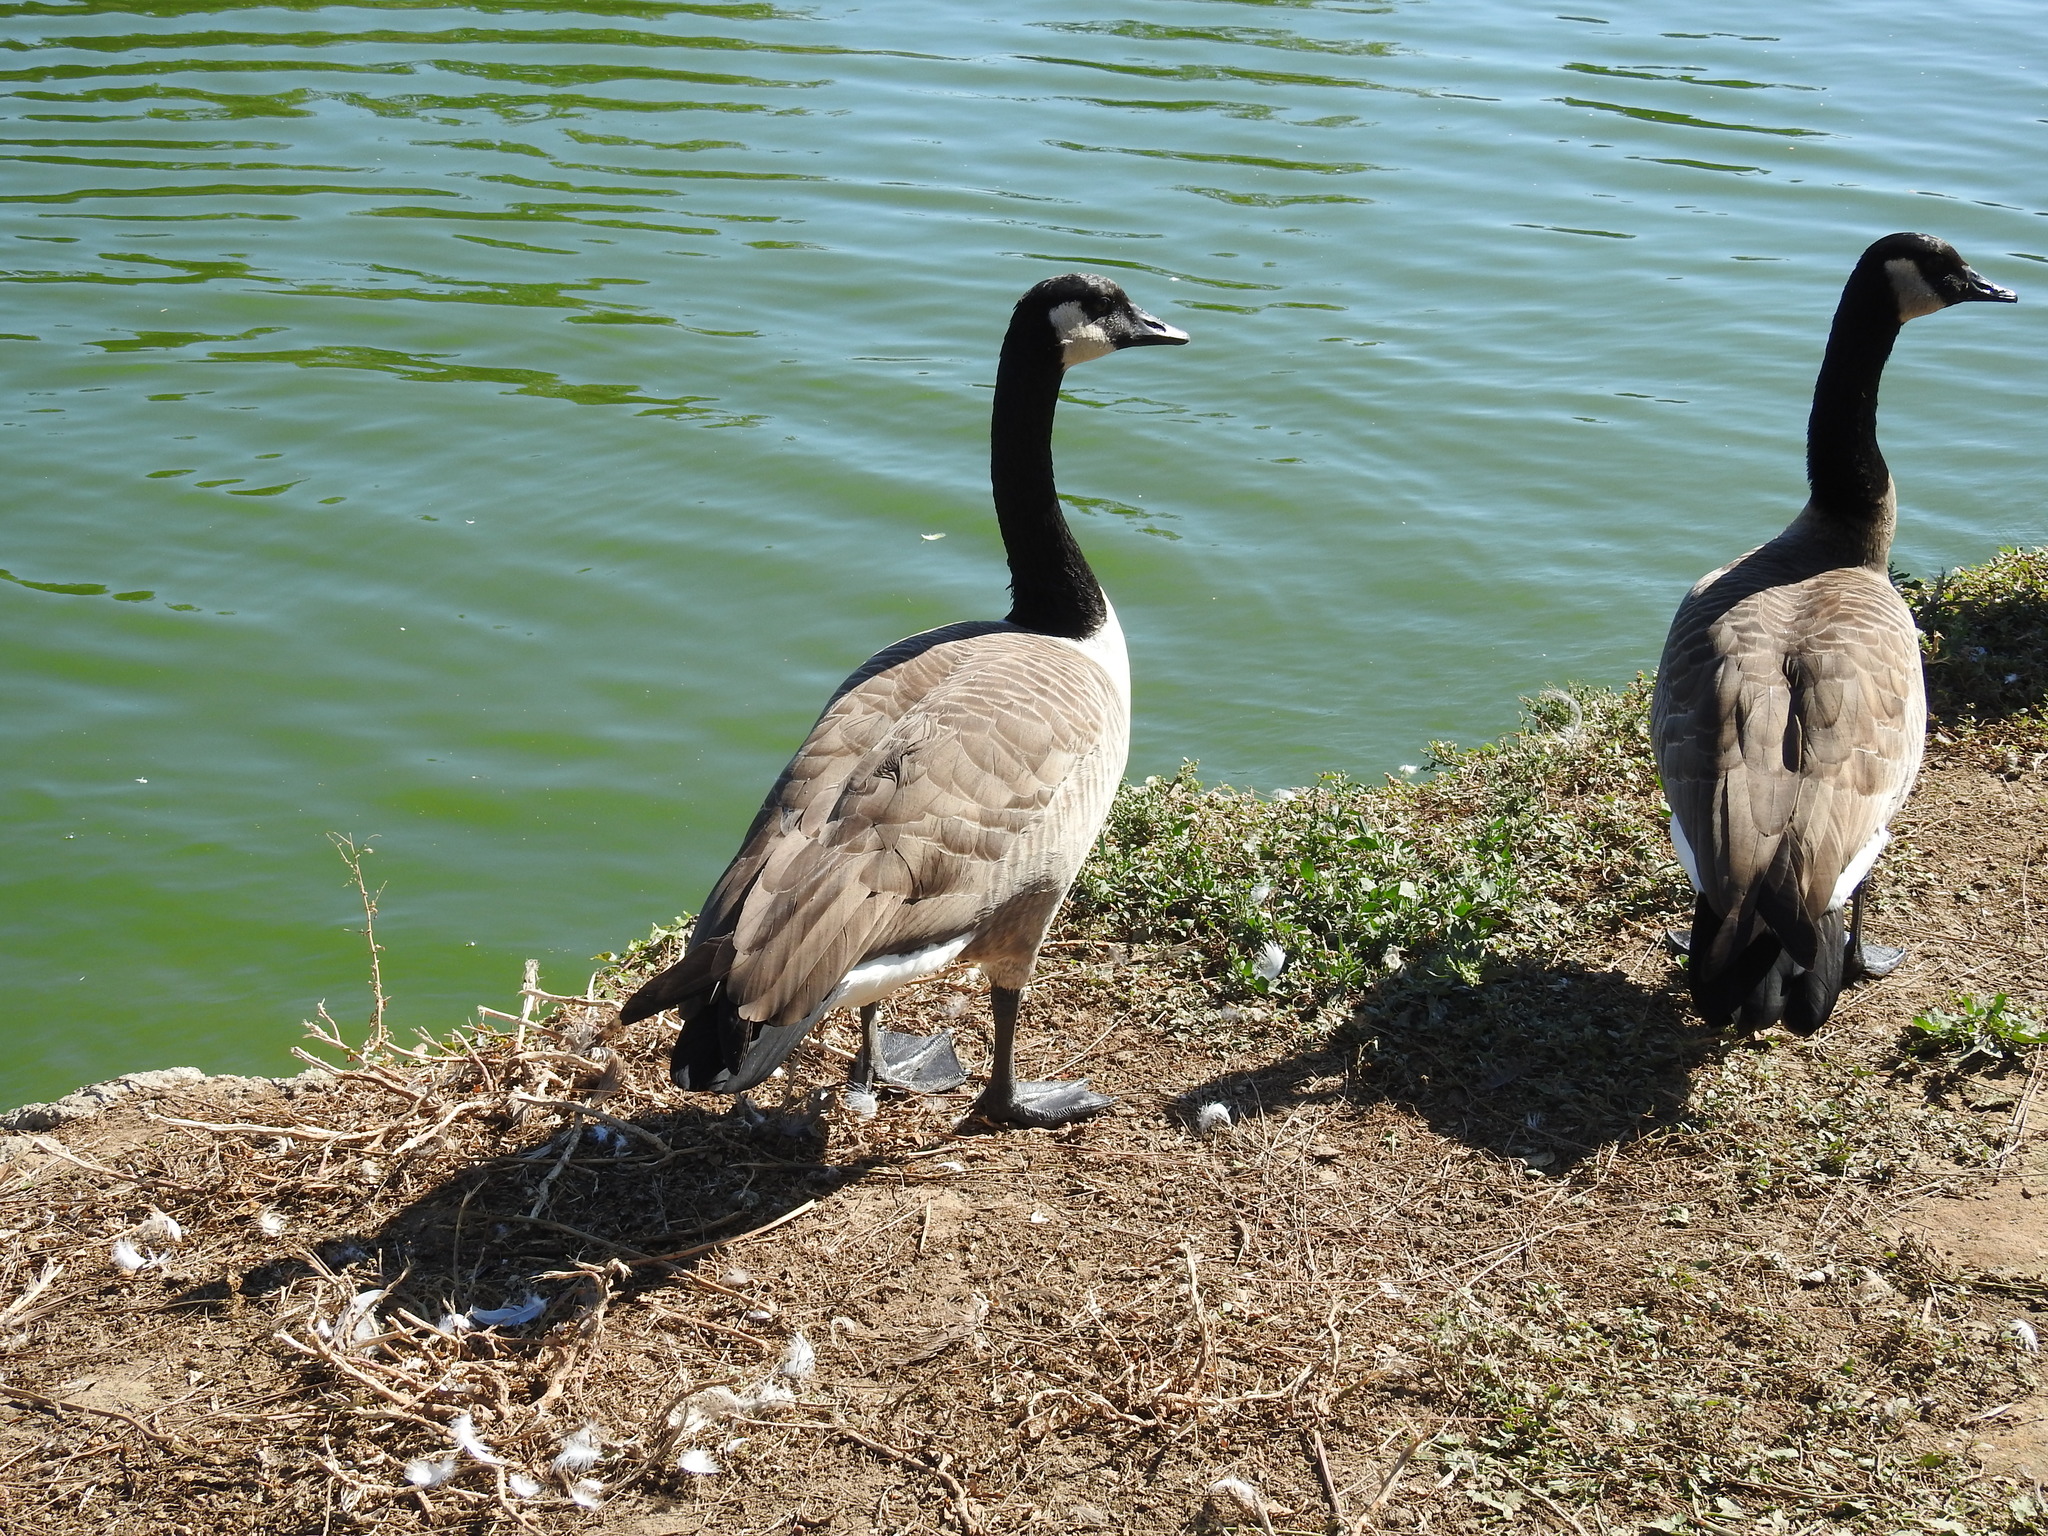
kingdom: Animalia
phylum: Chordata
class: Aves
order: Anseriformes
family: Anatidae
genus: Branta
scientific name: Branta canadensis
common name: Canada goose
